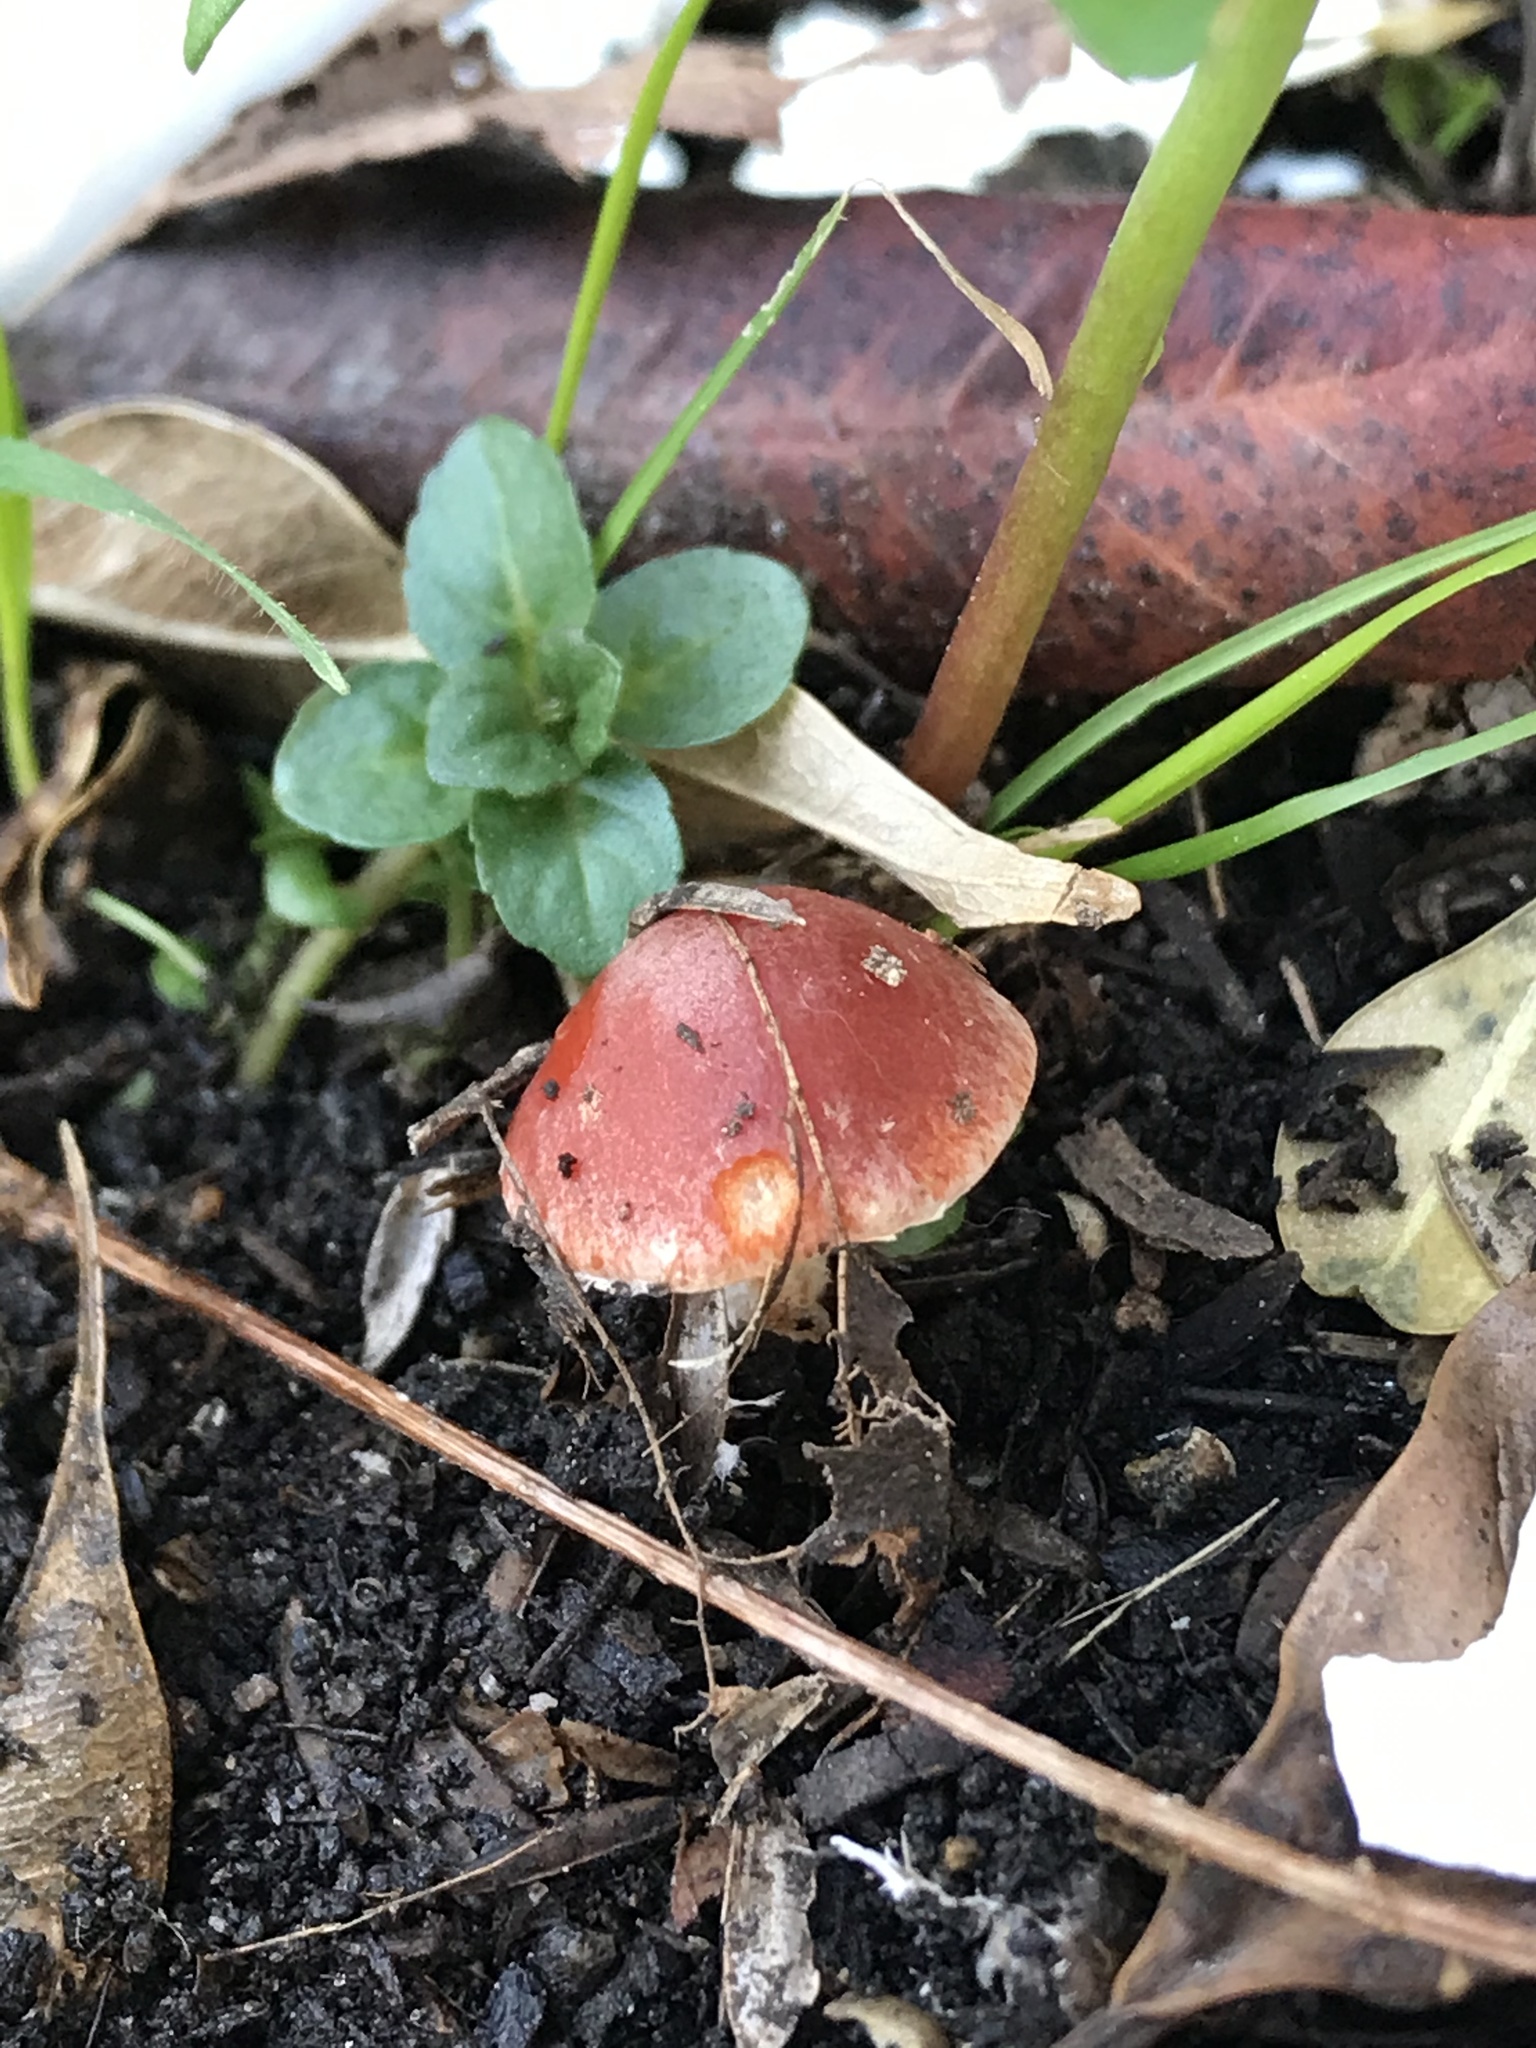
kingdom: Fungi
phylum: Basidiomycota
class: Agaricomycetes
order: Agaricales
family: Strophariaceae
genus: Leratiomyces
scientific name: Leratiomyces ceres
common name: Redlead roundhead
